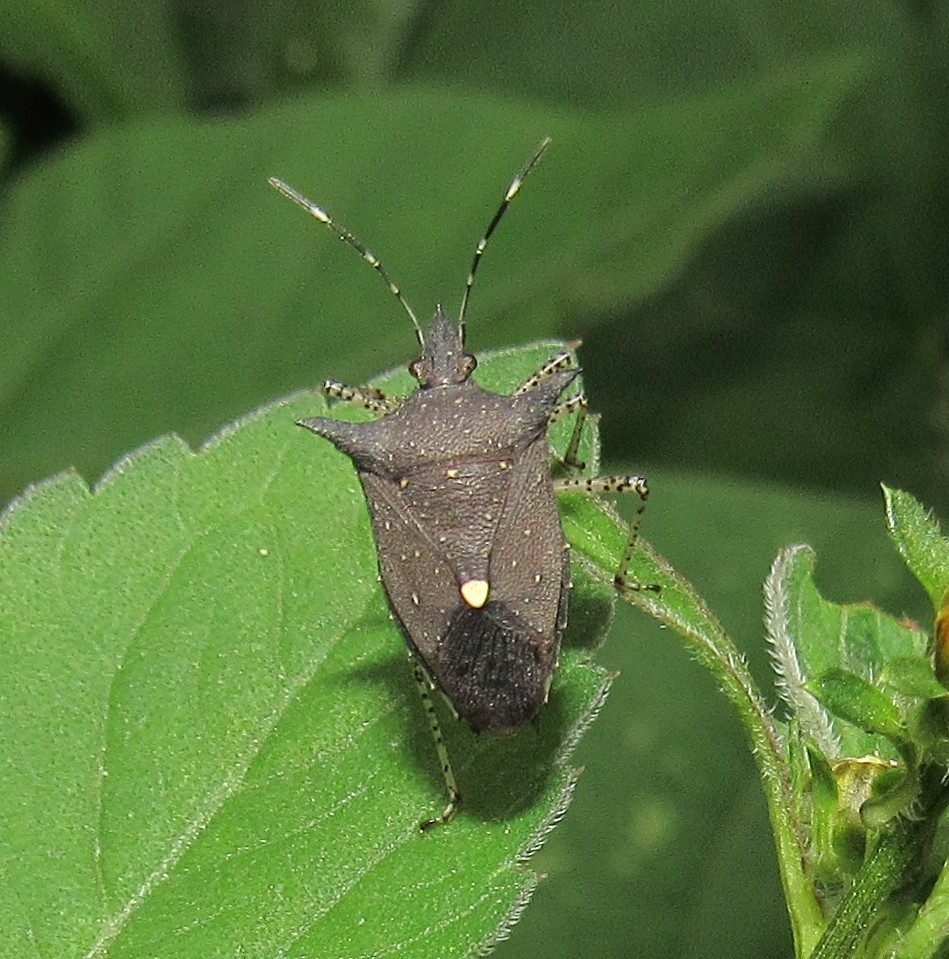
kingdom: Animalia
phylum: Arthropoda
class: Insecta
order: Hemiptera
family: Pentatomidae
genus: Proxys
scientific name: Proxys albopunctulatus
